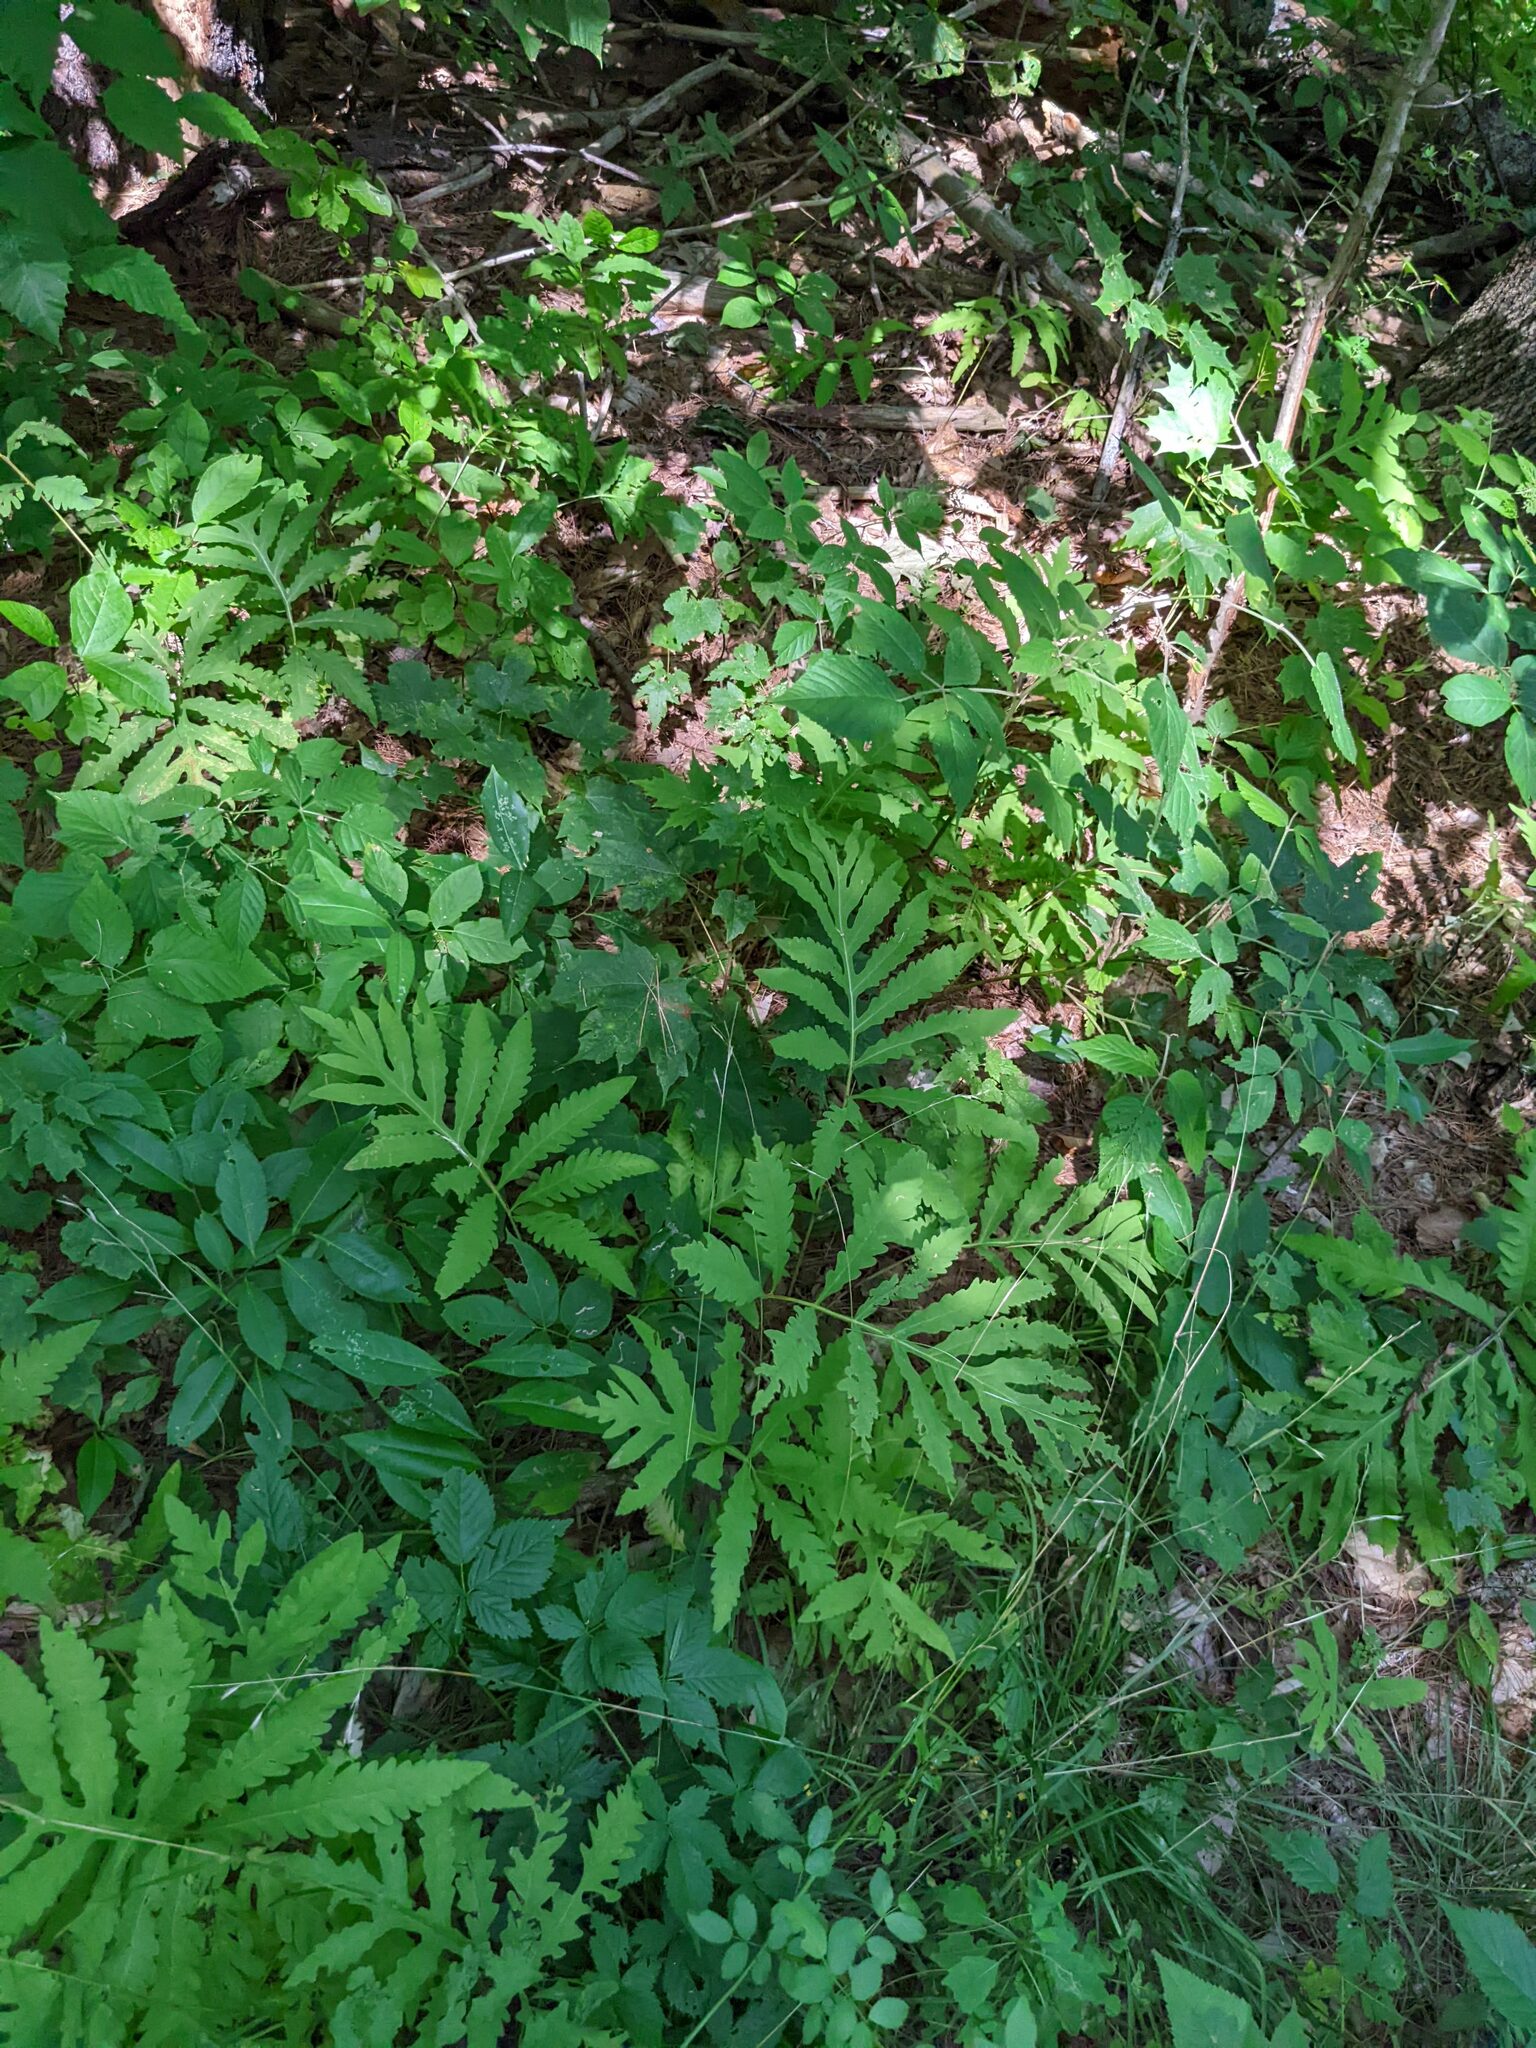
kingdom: Plantae
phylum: Tracheophyta
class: Polypodiopsida
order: Polypodiales
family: Onocleaceae
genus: Onoclea
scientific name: Onoclea sensibilis
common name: Sensitive fern
